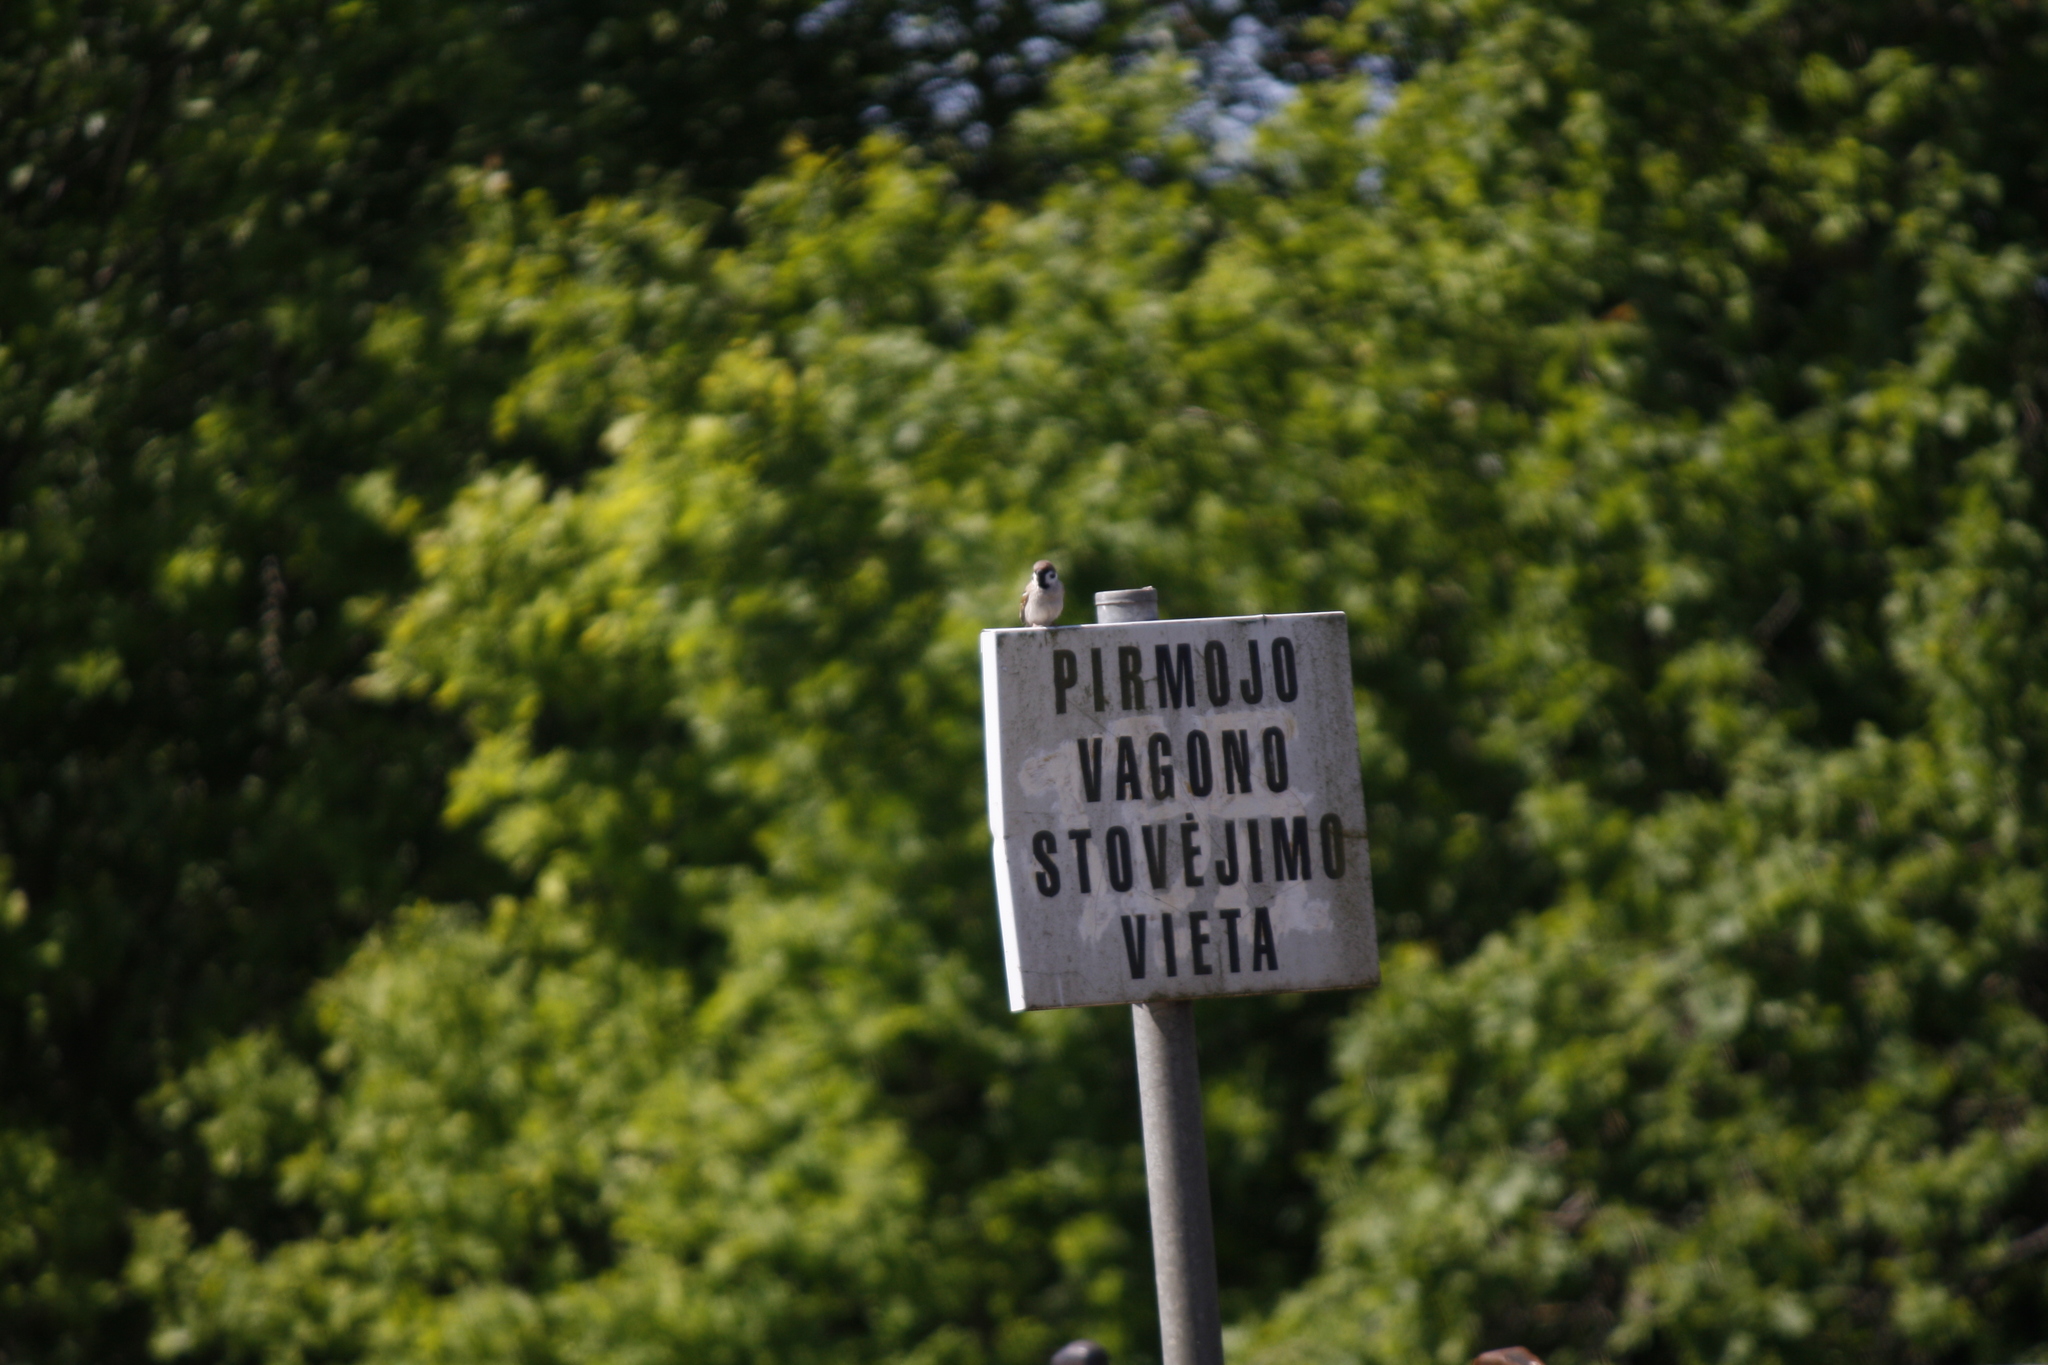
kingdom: Animalia
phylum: Chordata
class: Aves
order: Passeriformes
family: Passeridae
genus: Passer
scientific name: Passer montanus
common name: Eurasian tree sparrow
